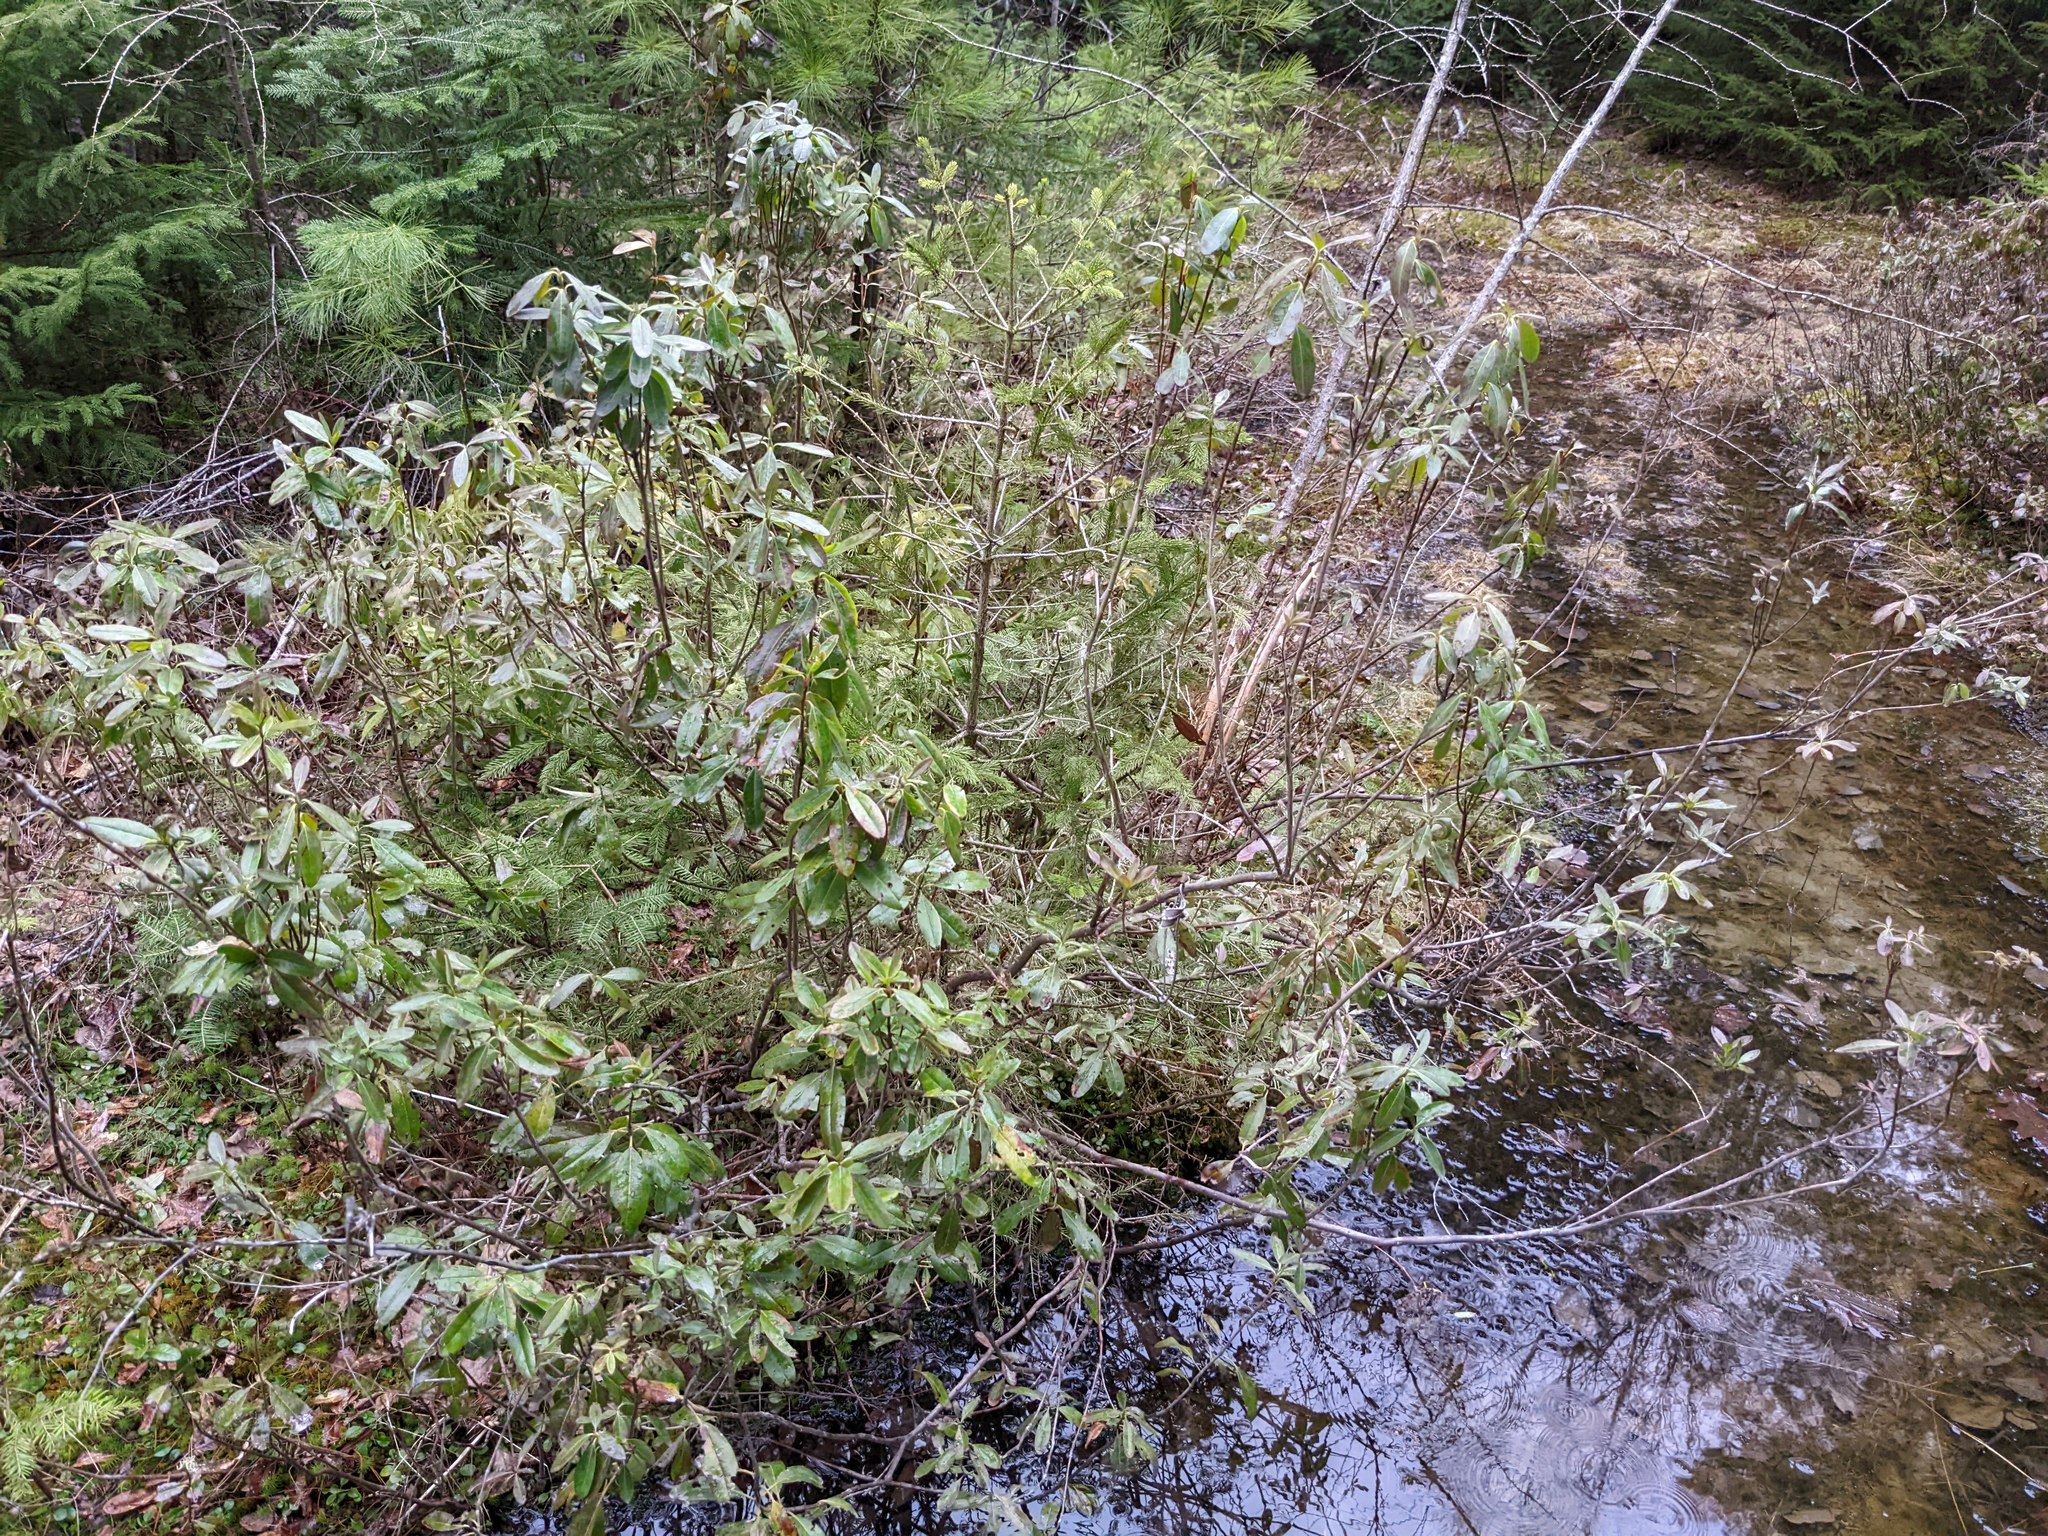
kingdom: Plantae
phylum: Tracheophyta
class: Magnoliopsida
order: Ericales
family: Ericaceae
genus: Kalmia
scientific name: Kalmia angustifolia
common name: Sheep-laurel
